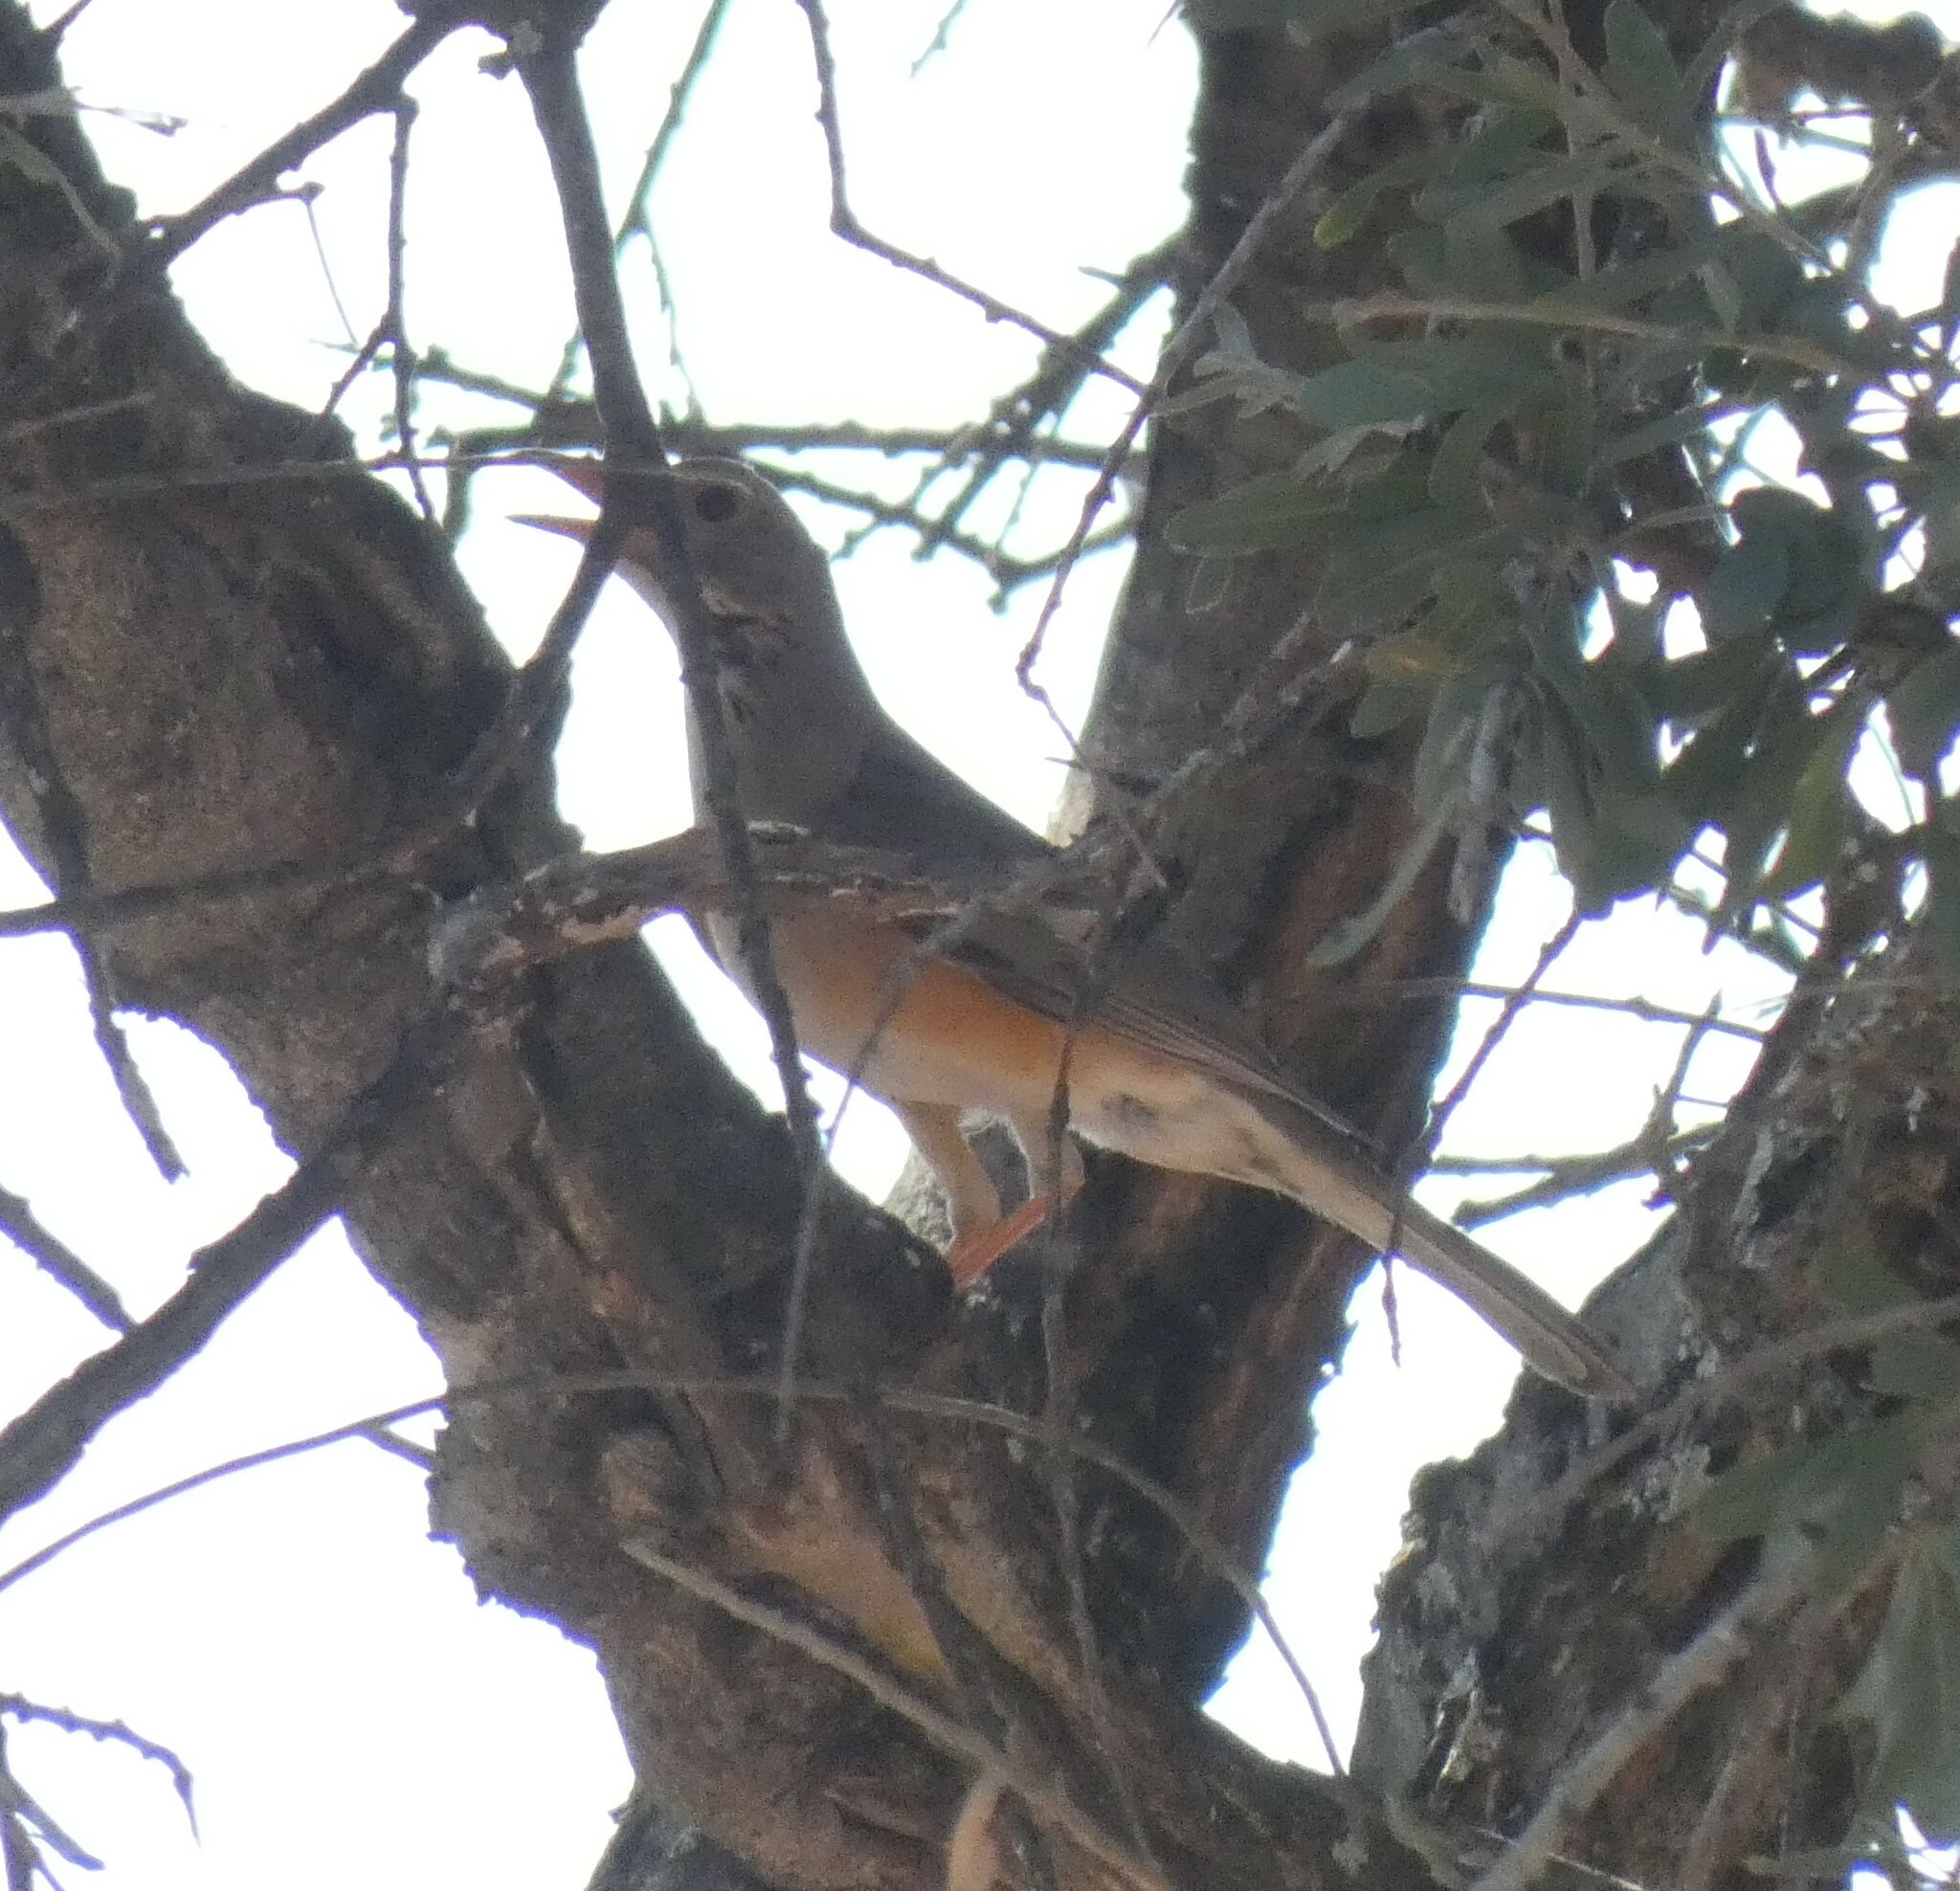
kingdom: Animalia
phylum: Chordata
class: Aves
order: Passeriformes
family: Turdidae
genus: Turdus
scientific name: Turdus libonyana
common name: Kurrichane thrush
